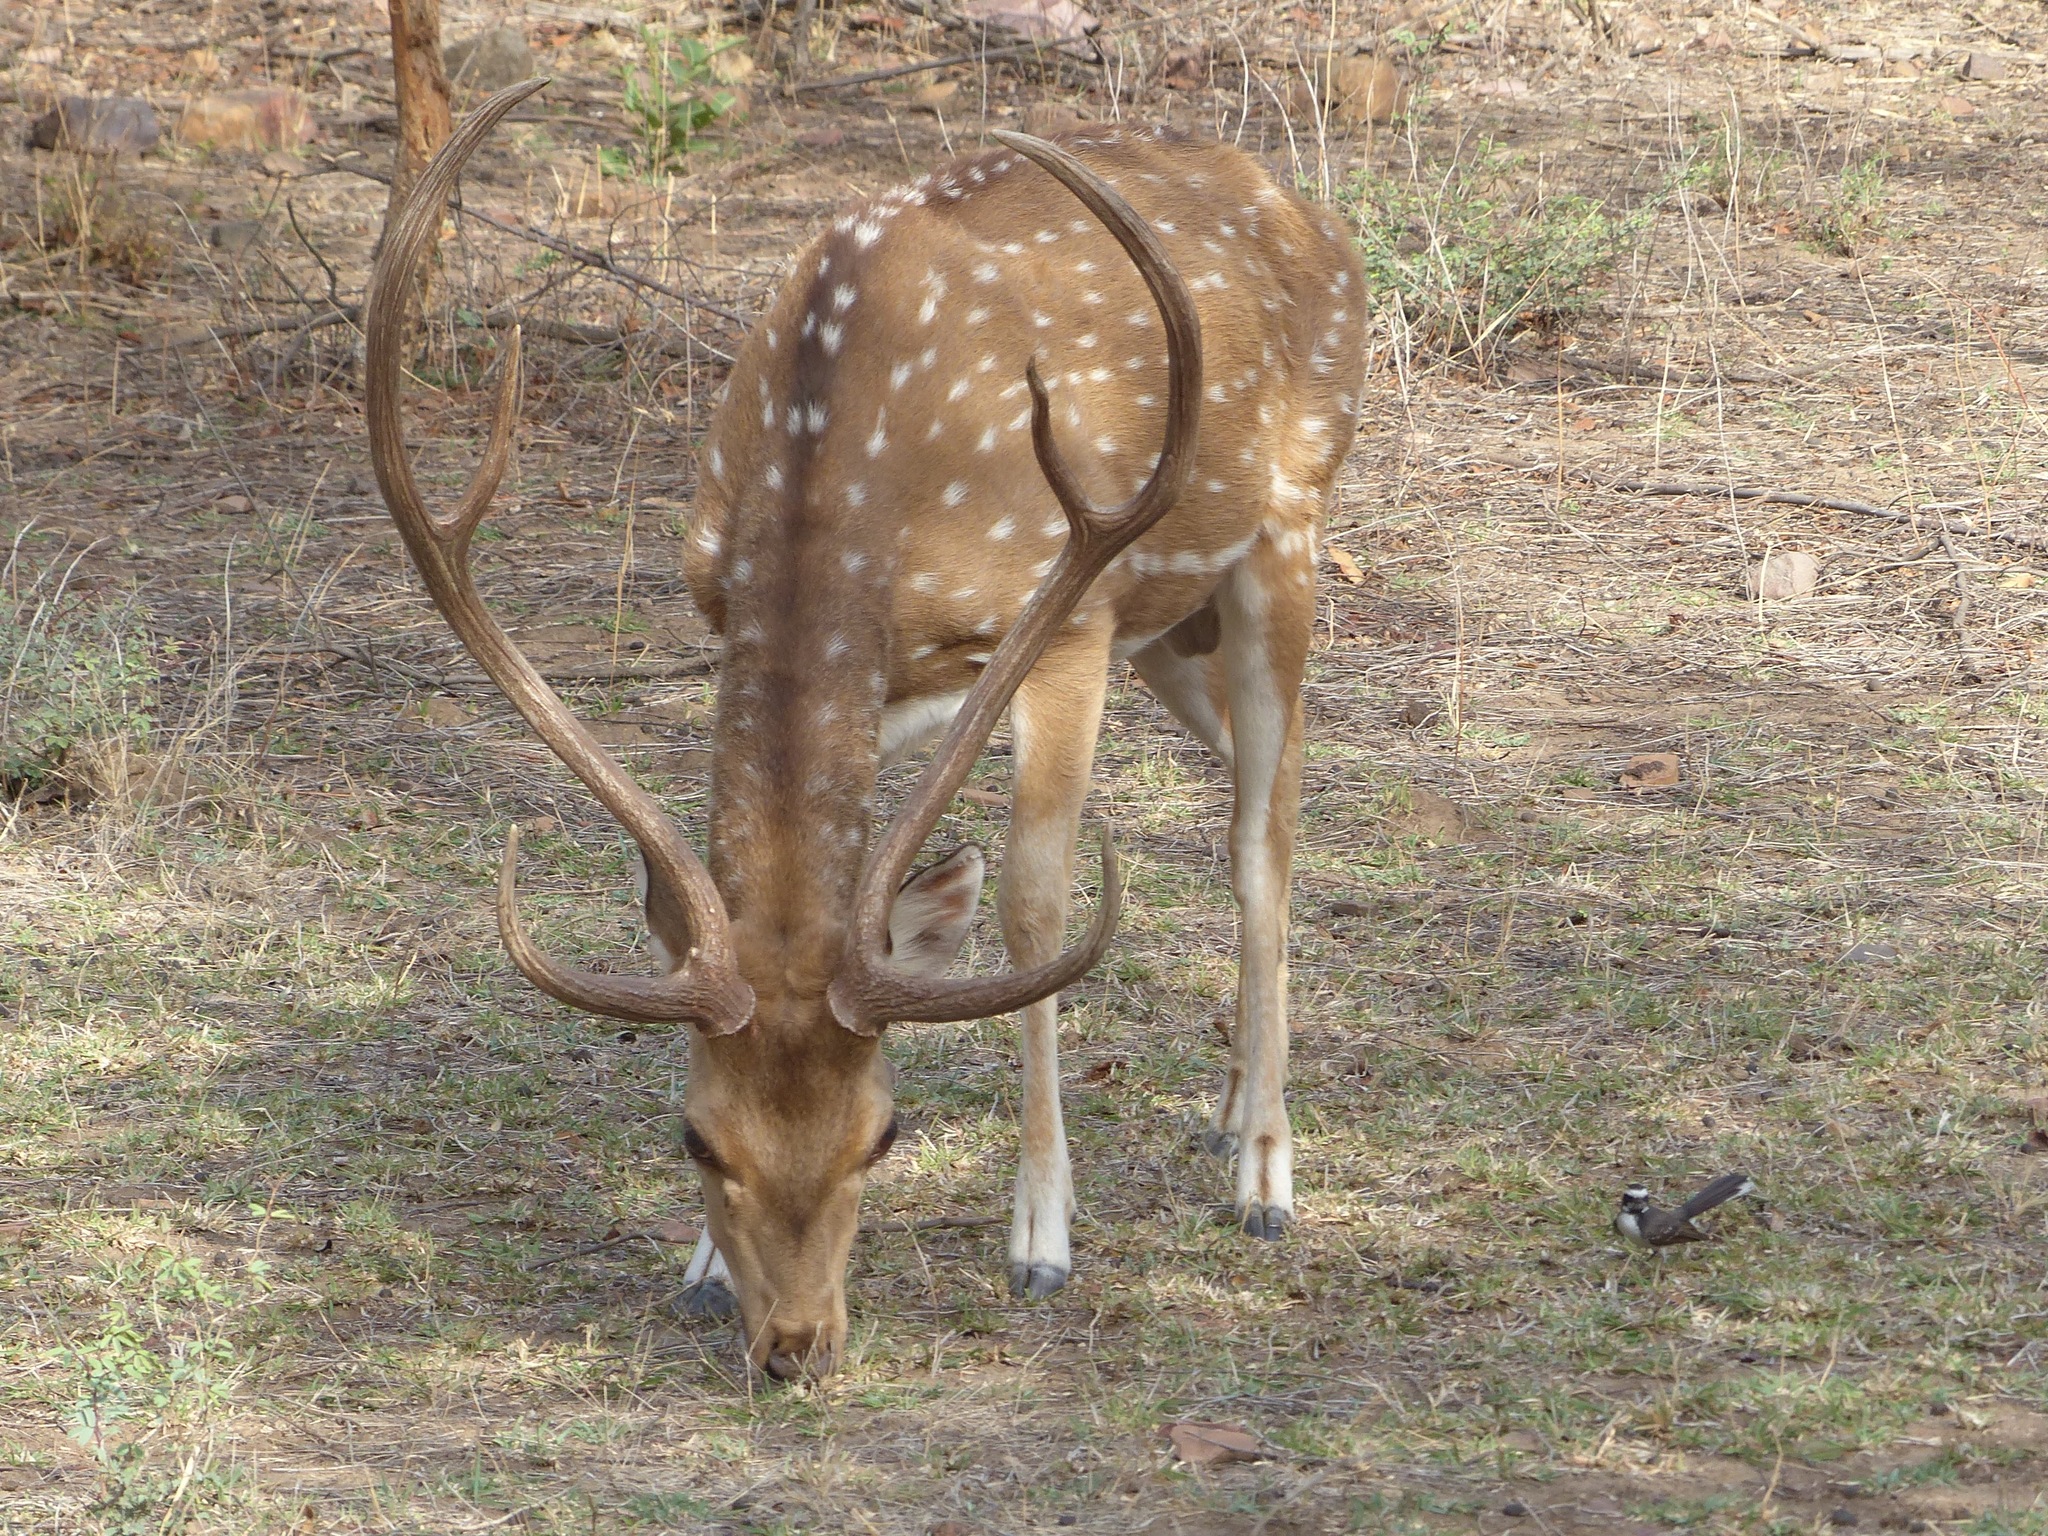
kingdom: Animalia
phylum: Chordata
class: Mammalia
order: Artiodactyla
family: Cervidae
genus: Axis
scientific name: Axis axis
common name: Chital
